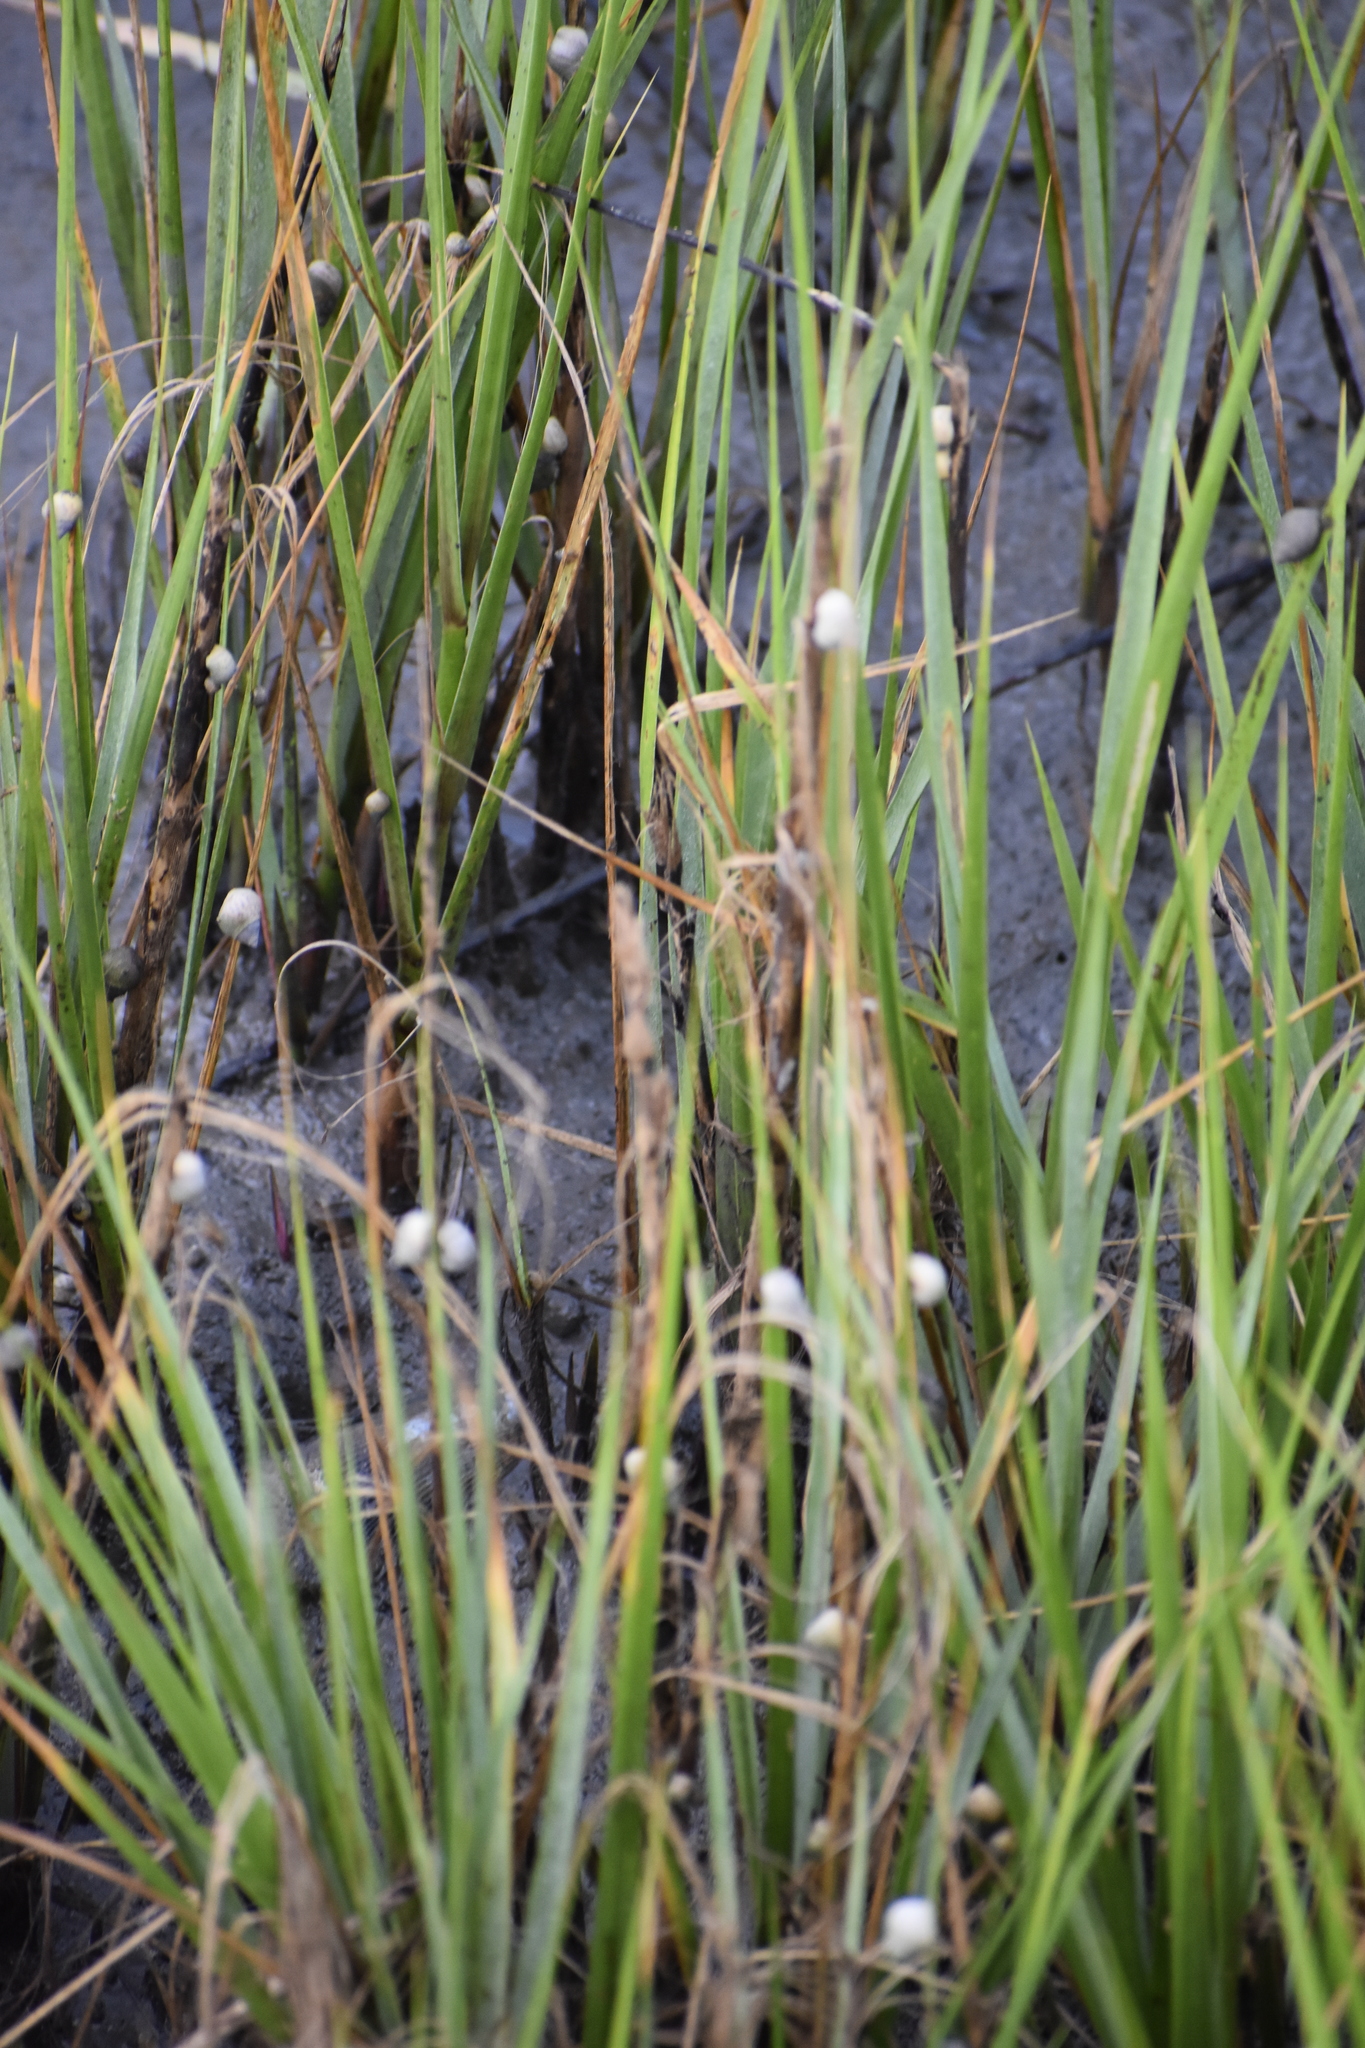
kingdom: Animalia
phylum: Mollusca
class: Gastropoda
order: Littorinimorpha
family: Littorinidae
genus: Littoraria
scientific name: Littoraria irrorata
